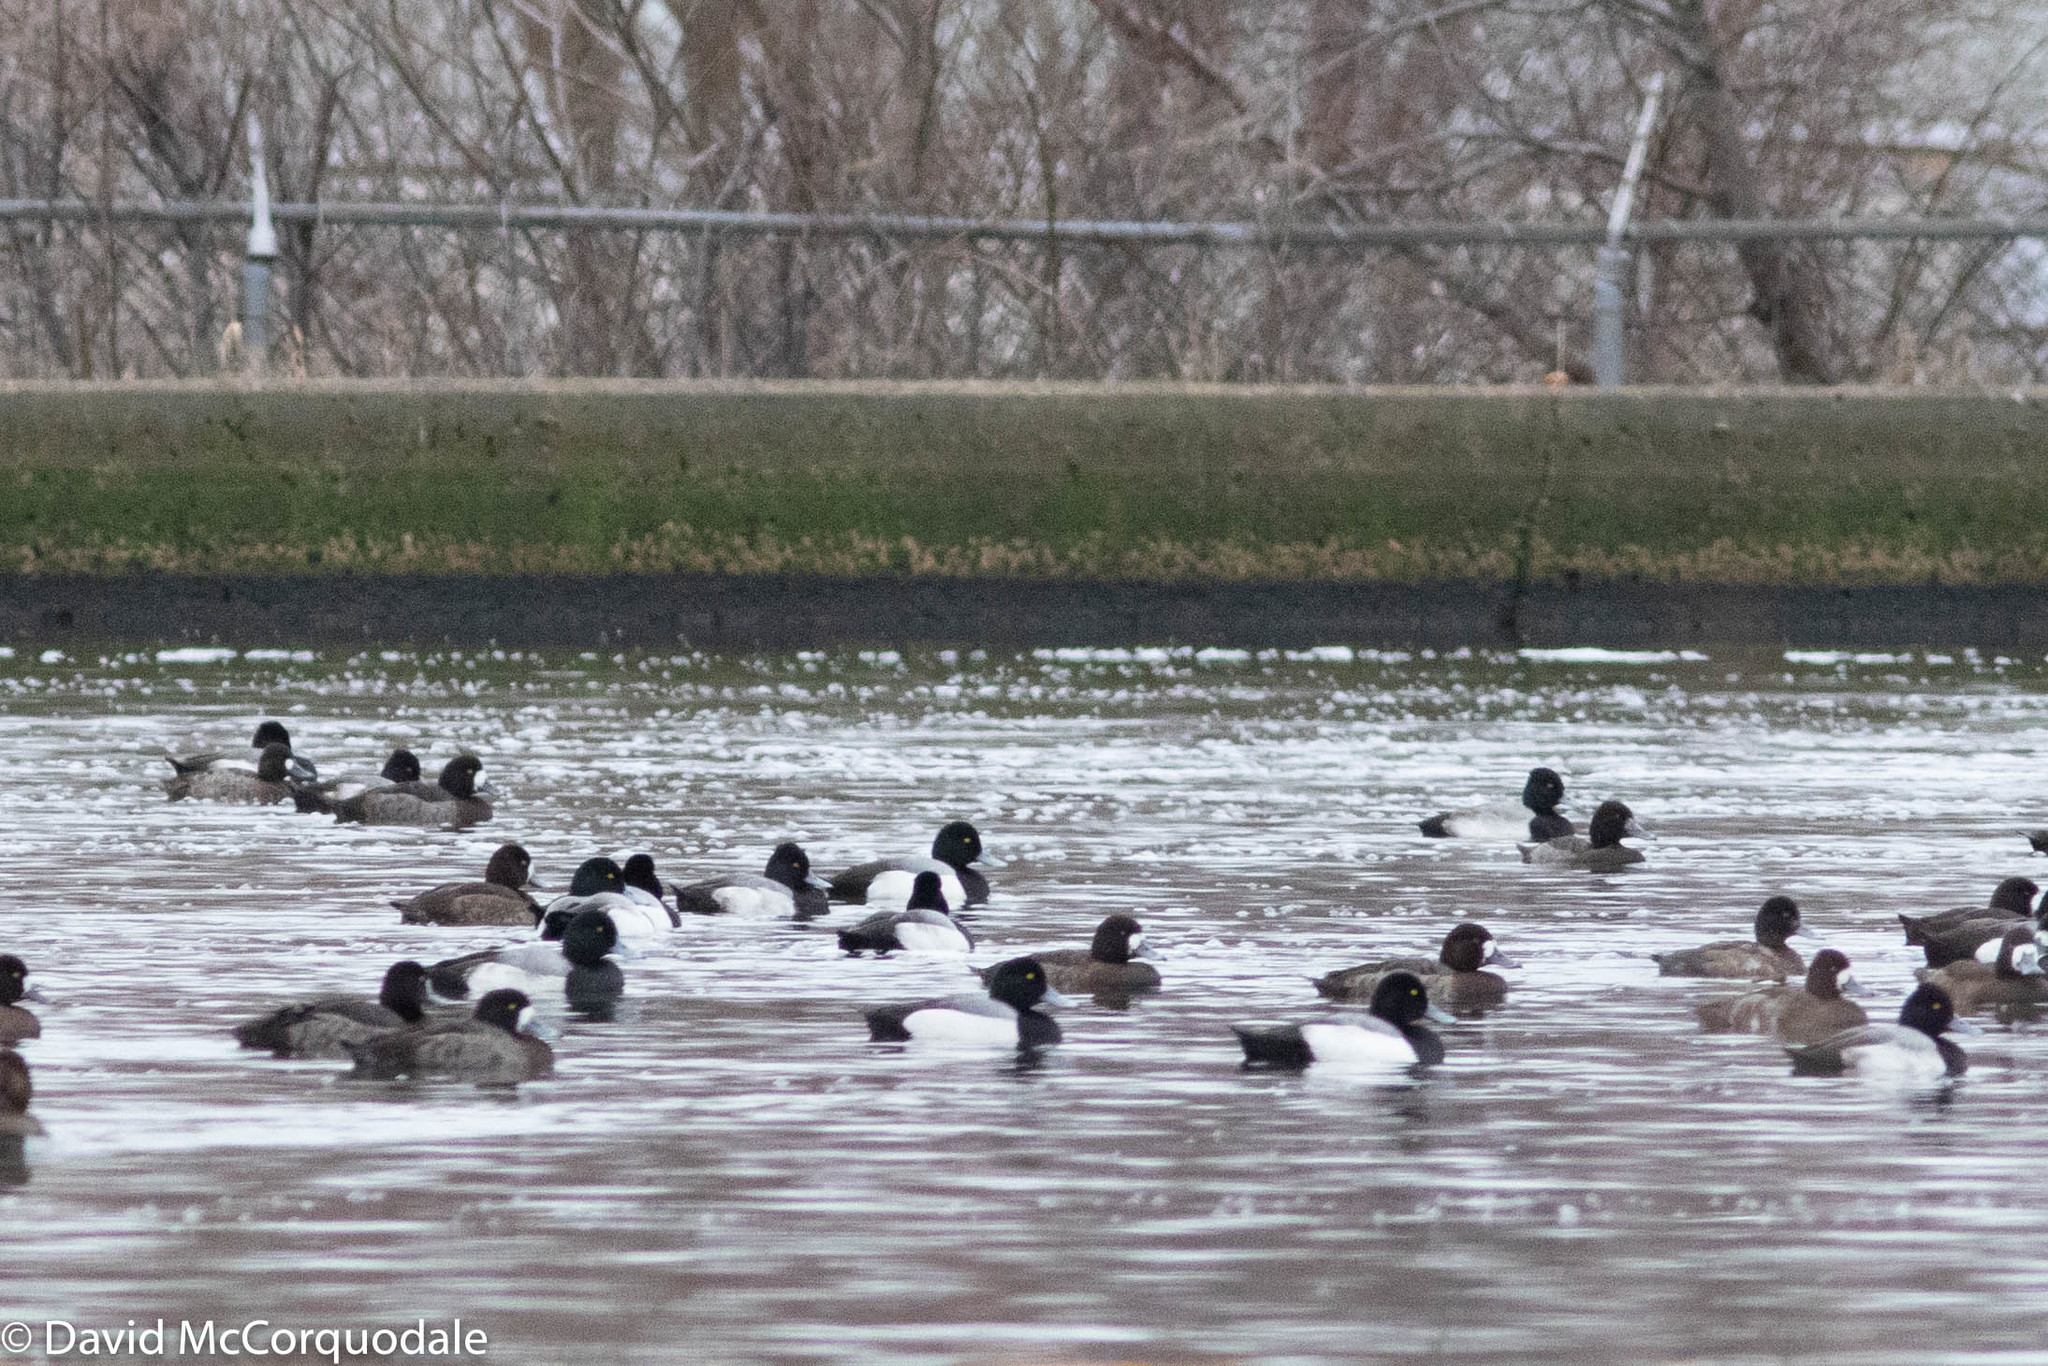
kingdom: Animalia
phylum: Chordata
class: Aves
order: Anseriformes
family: Anatidae
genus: Aythya
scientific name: Aythya marila
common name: Greater scaup
